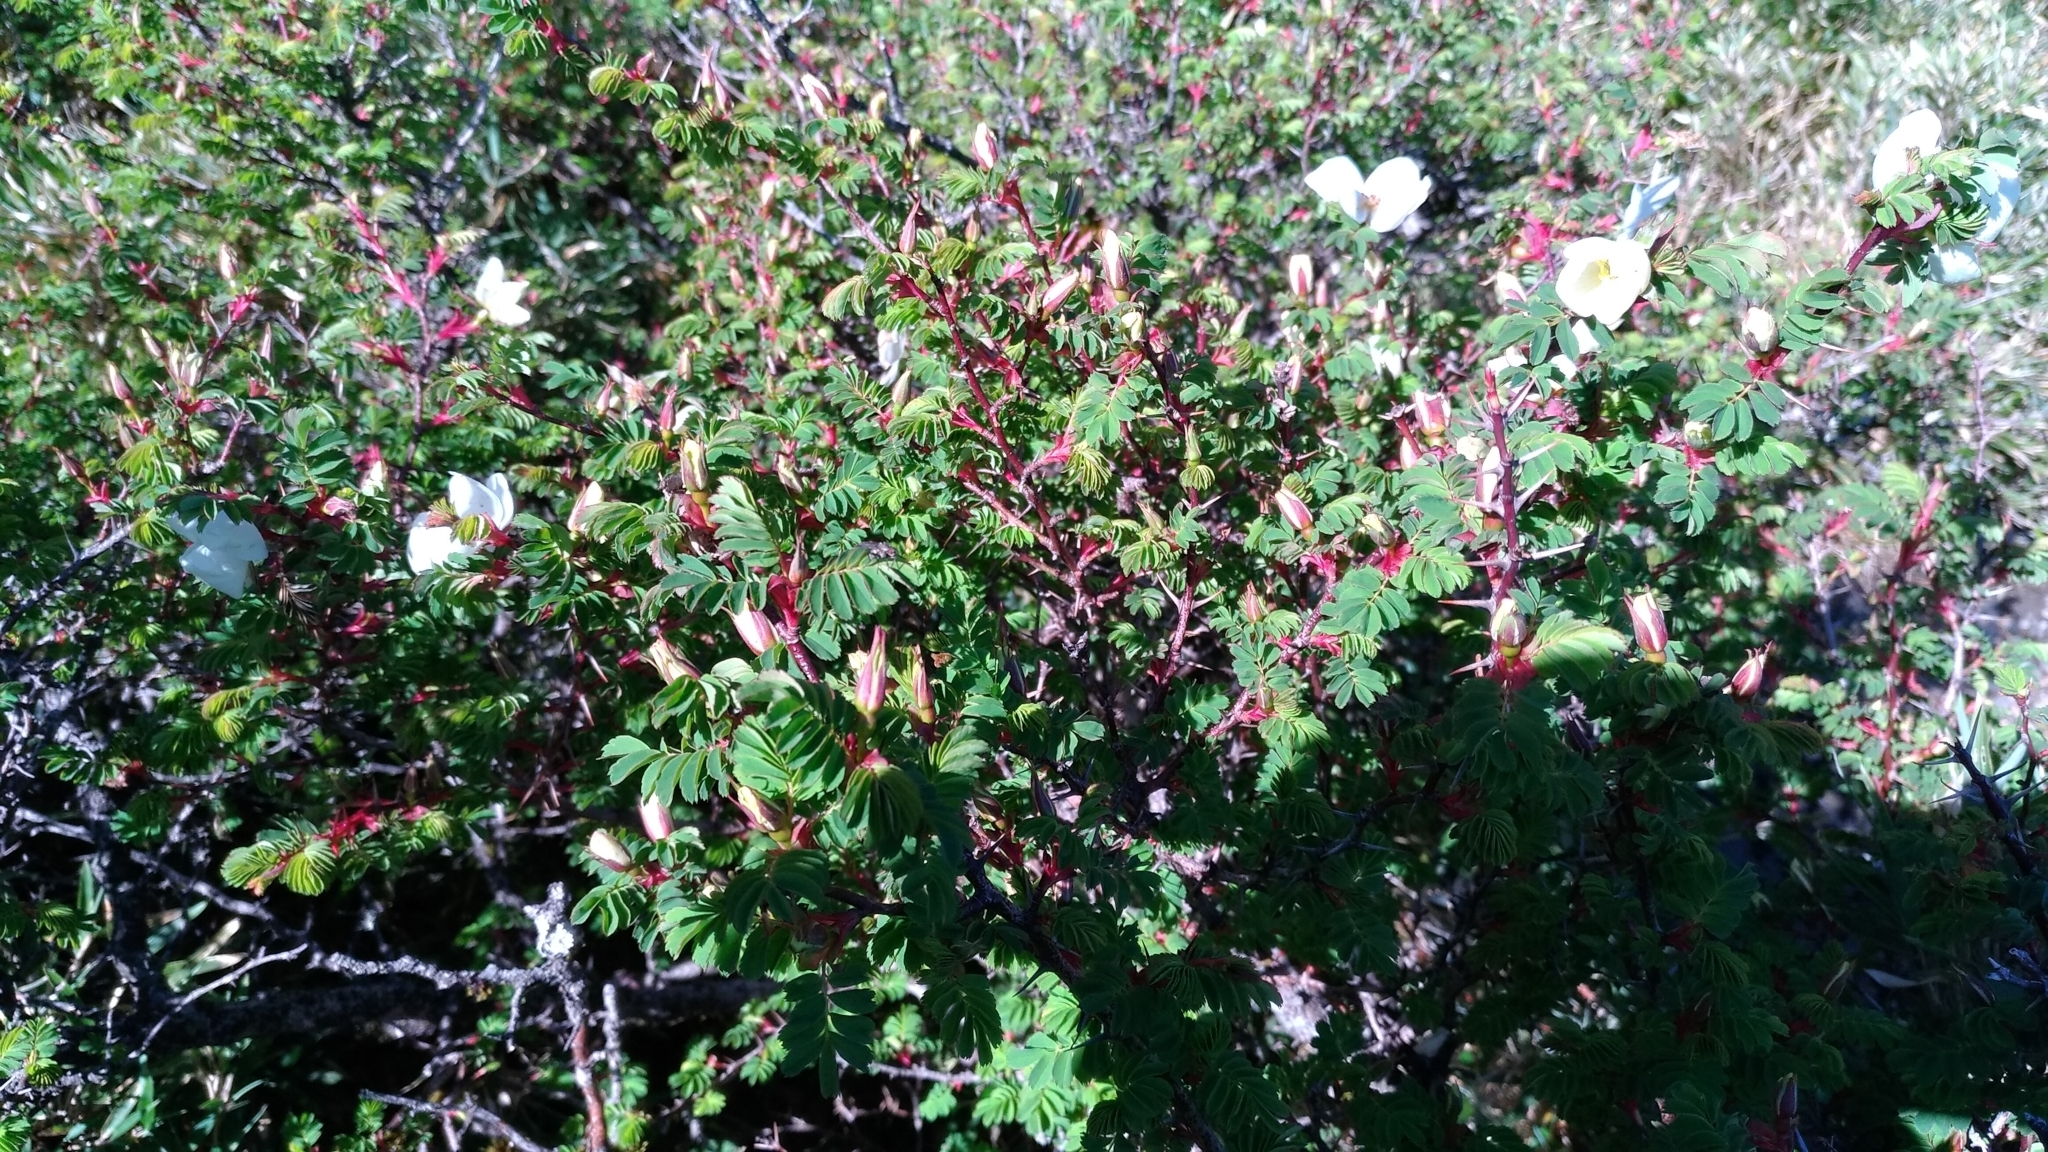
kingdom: Plantae
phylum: Tracheophyta
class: Magnoliopsida
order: Rosales
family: Rosaceae
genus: Rosa
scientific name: Rosa morrisonensis
